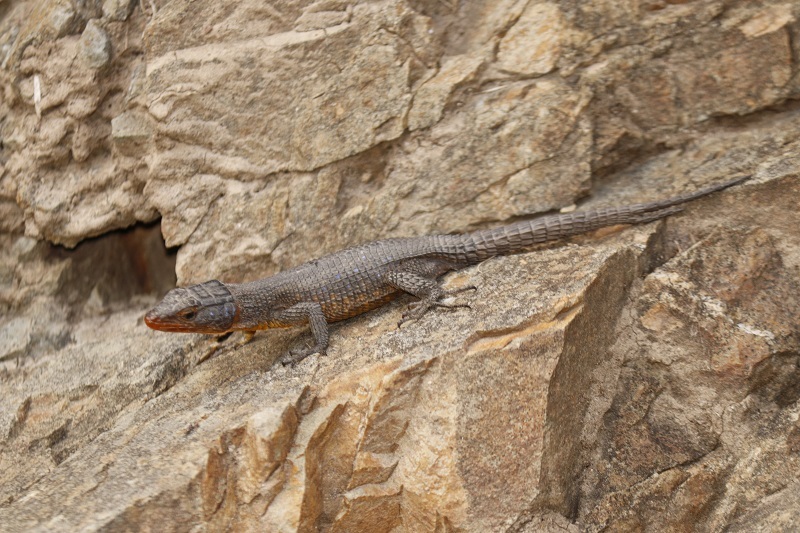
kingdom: Animalia
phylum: Chordata
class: Squamata
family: Cordylidae
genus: Ninurta
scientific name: Ninurta coeruleopunctatus
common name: Blue-spotted girdled lizard
